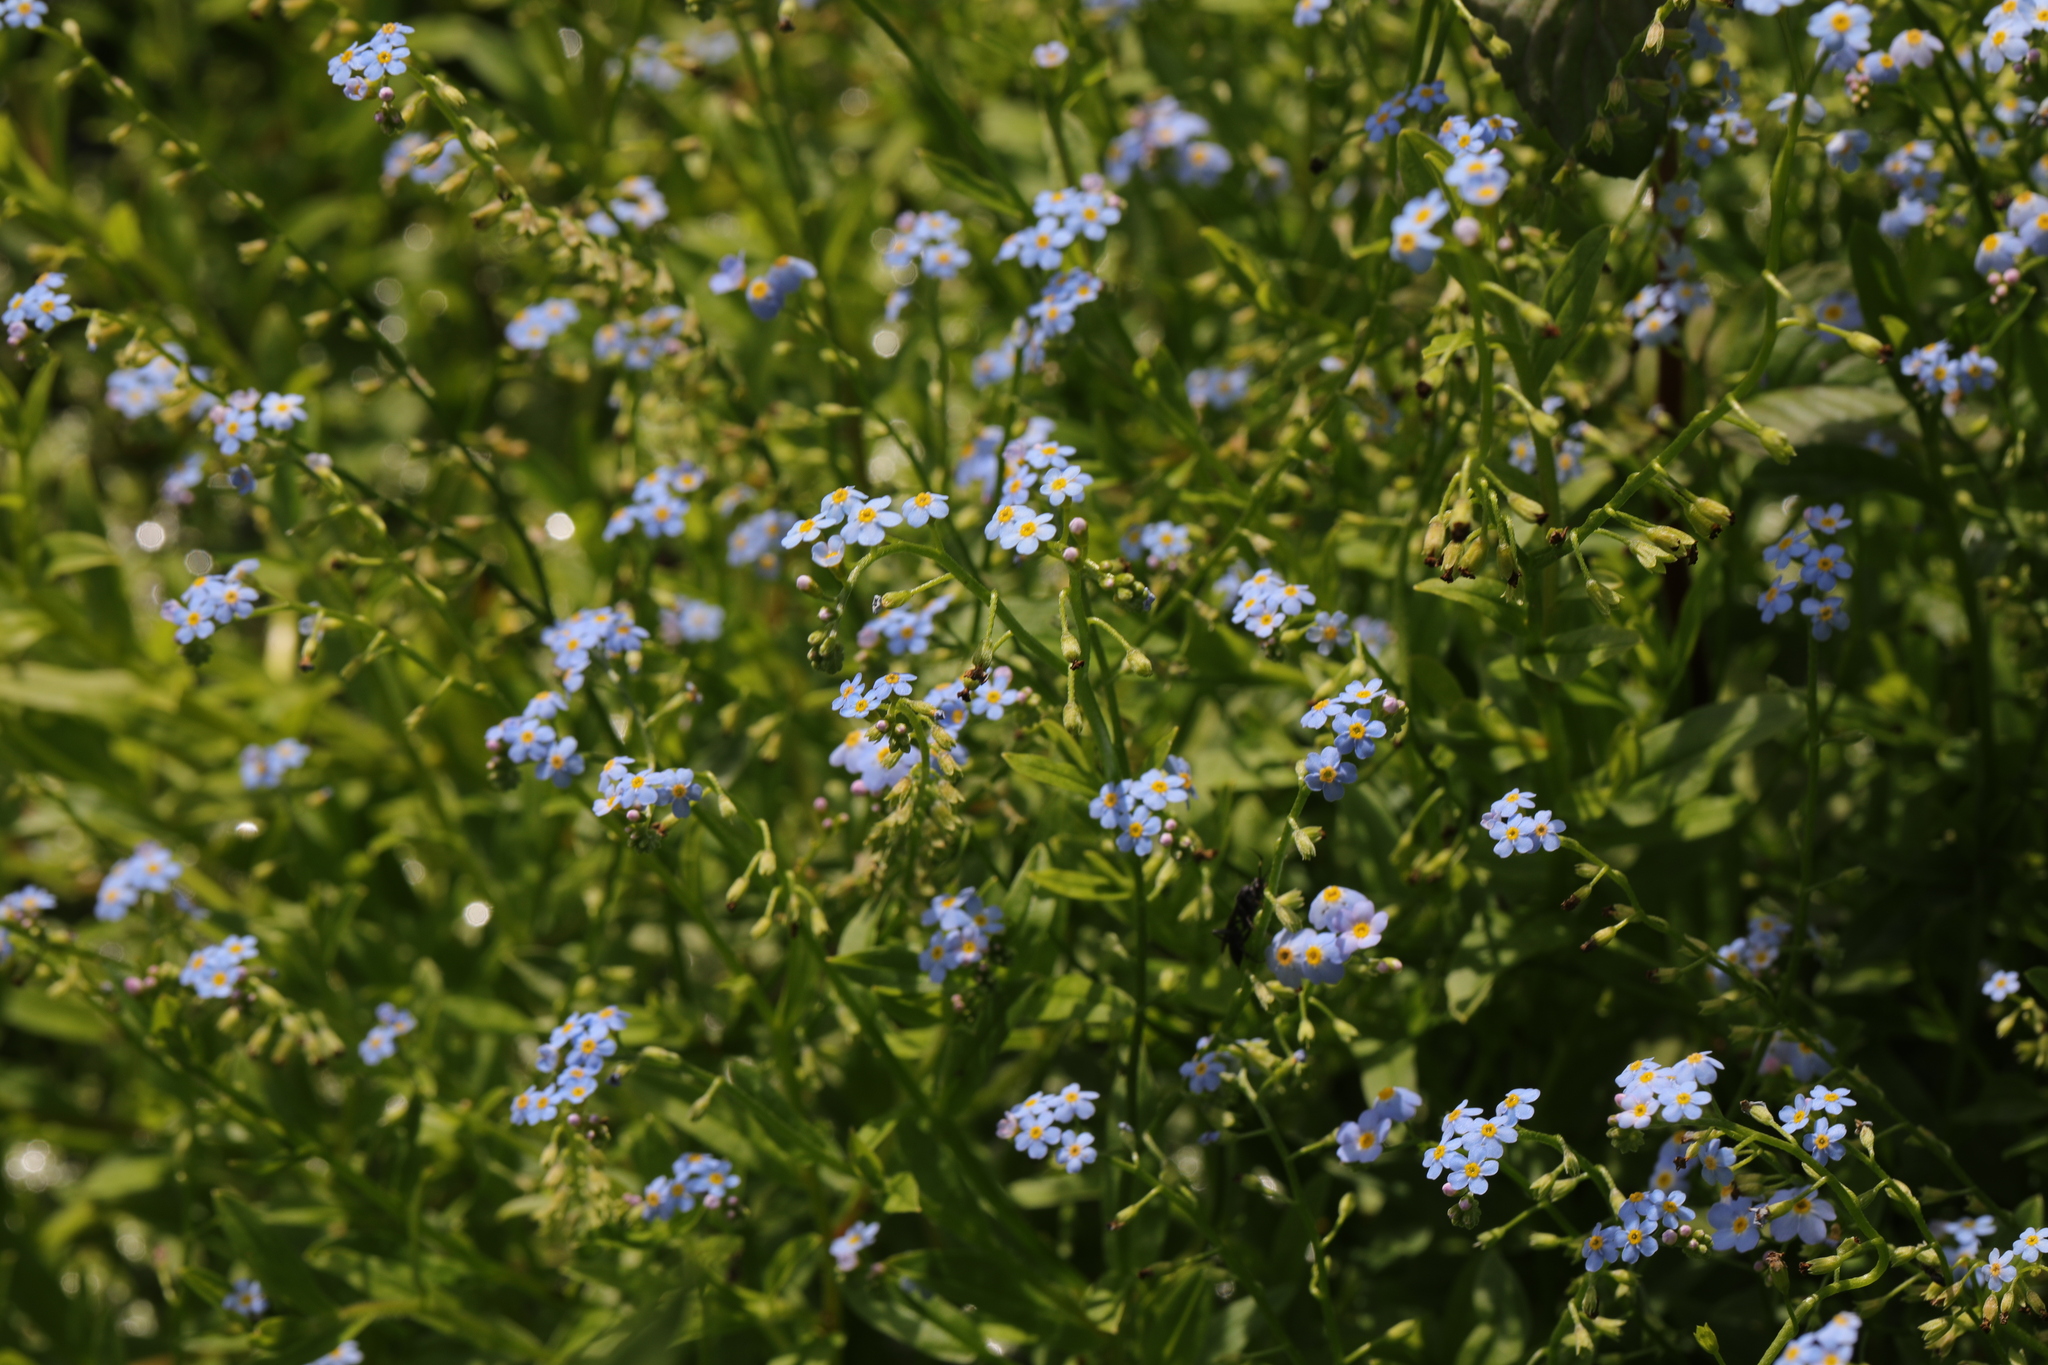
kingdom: Plantae
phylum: Tracheophyta
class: Magnoliopsida
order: Boraginales
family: Boraginaceae
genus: Myosotis
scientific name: Myosotis scorpioides
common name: Water forget-me-not
